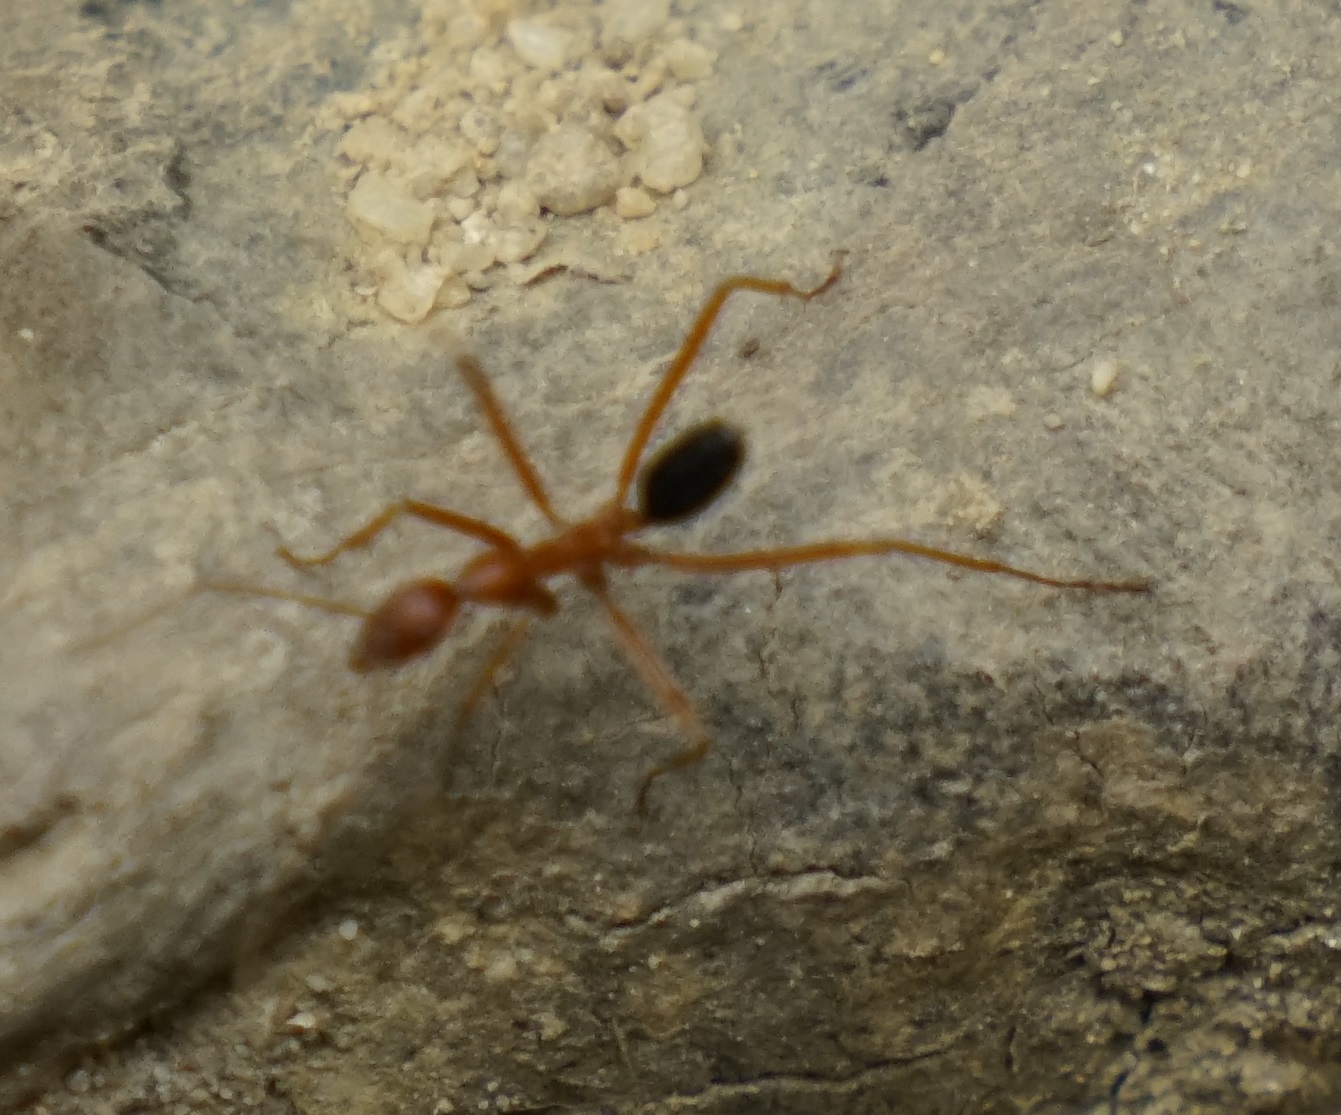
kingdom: Animalia
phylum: Arthropoda
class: Insecta
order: Hymenoptera
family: Formicidae
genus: Leptomyrmex
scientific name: Leptomyrmex nigriventris
